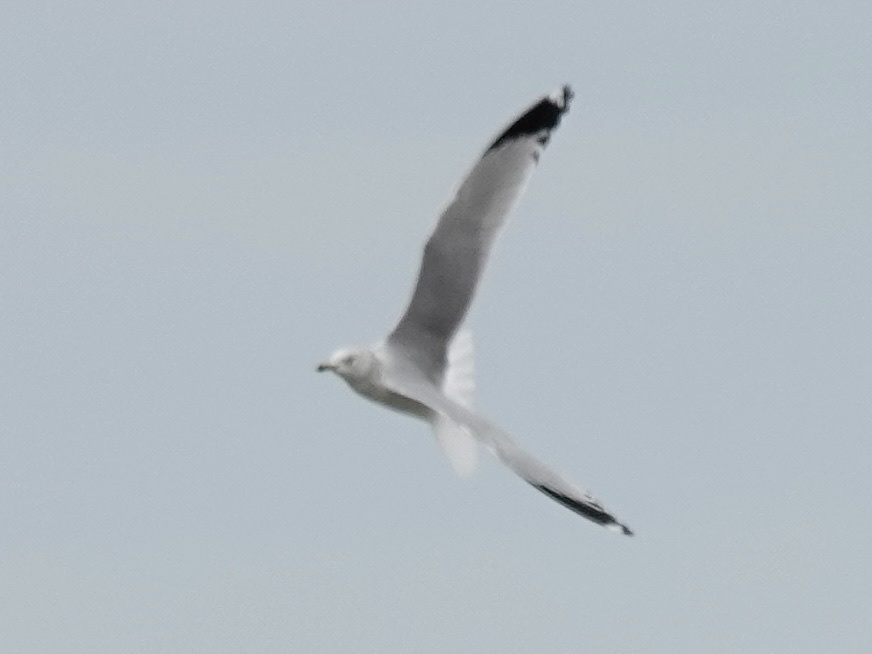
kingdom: Animalia
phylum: Chordata
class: Aves
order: Charadriiformes
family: Laridae
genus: Larus
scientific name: Larus delawarensis
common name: Ring-billed gull
